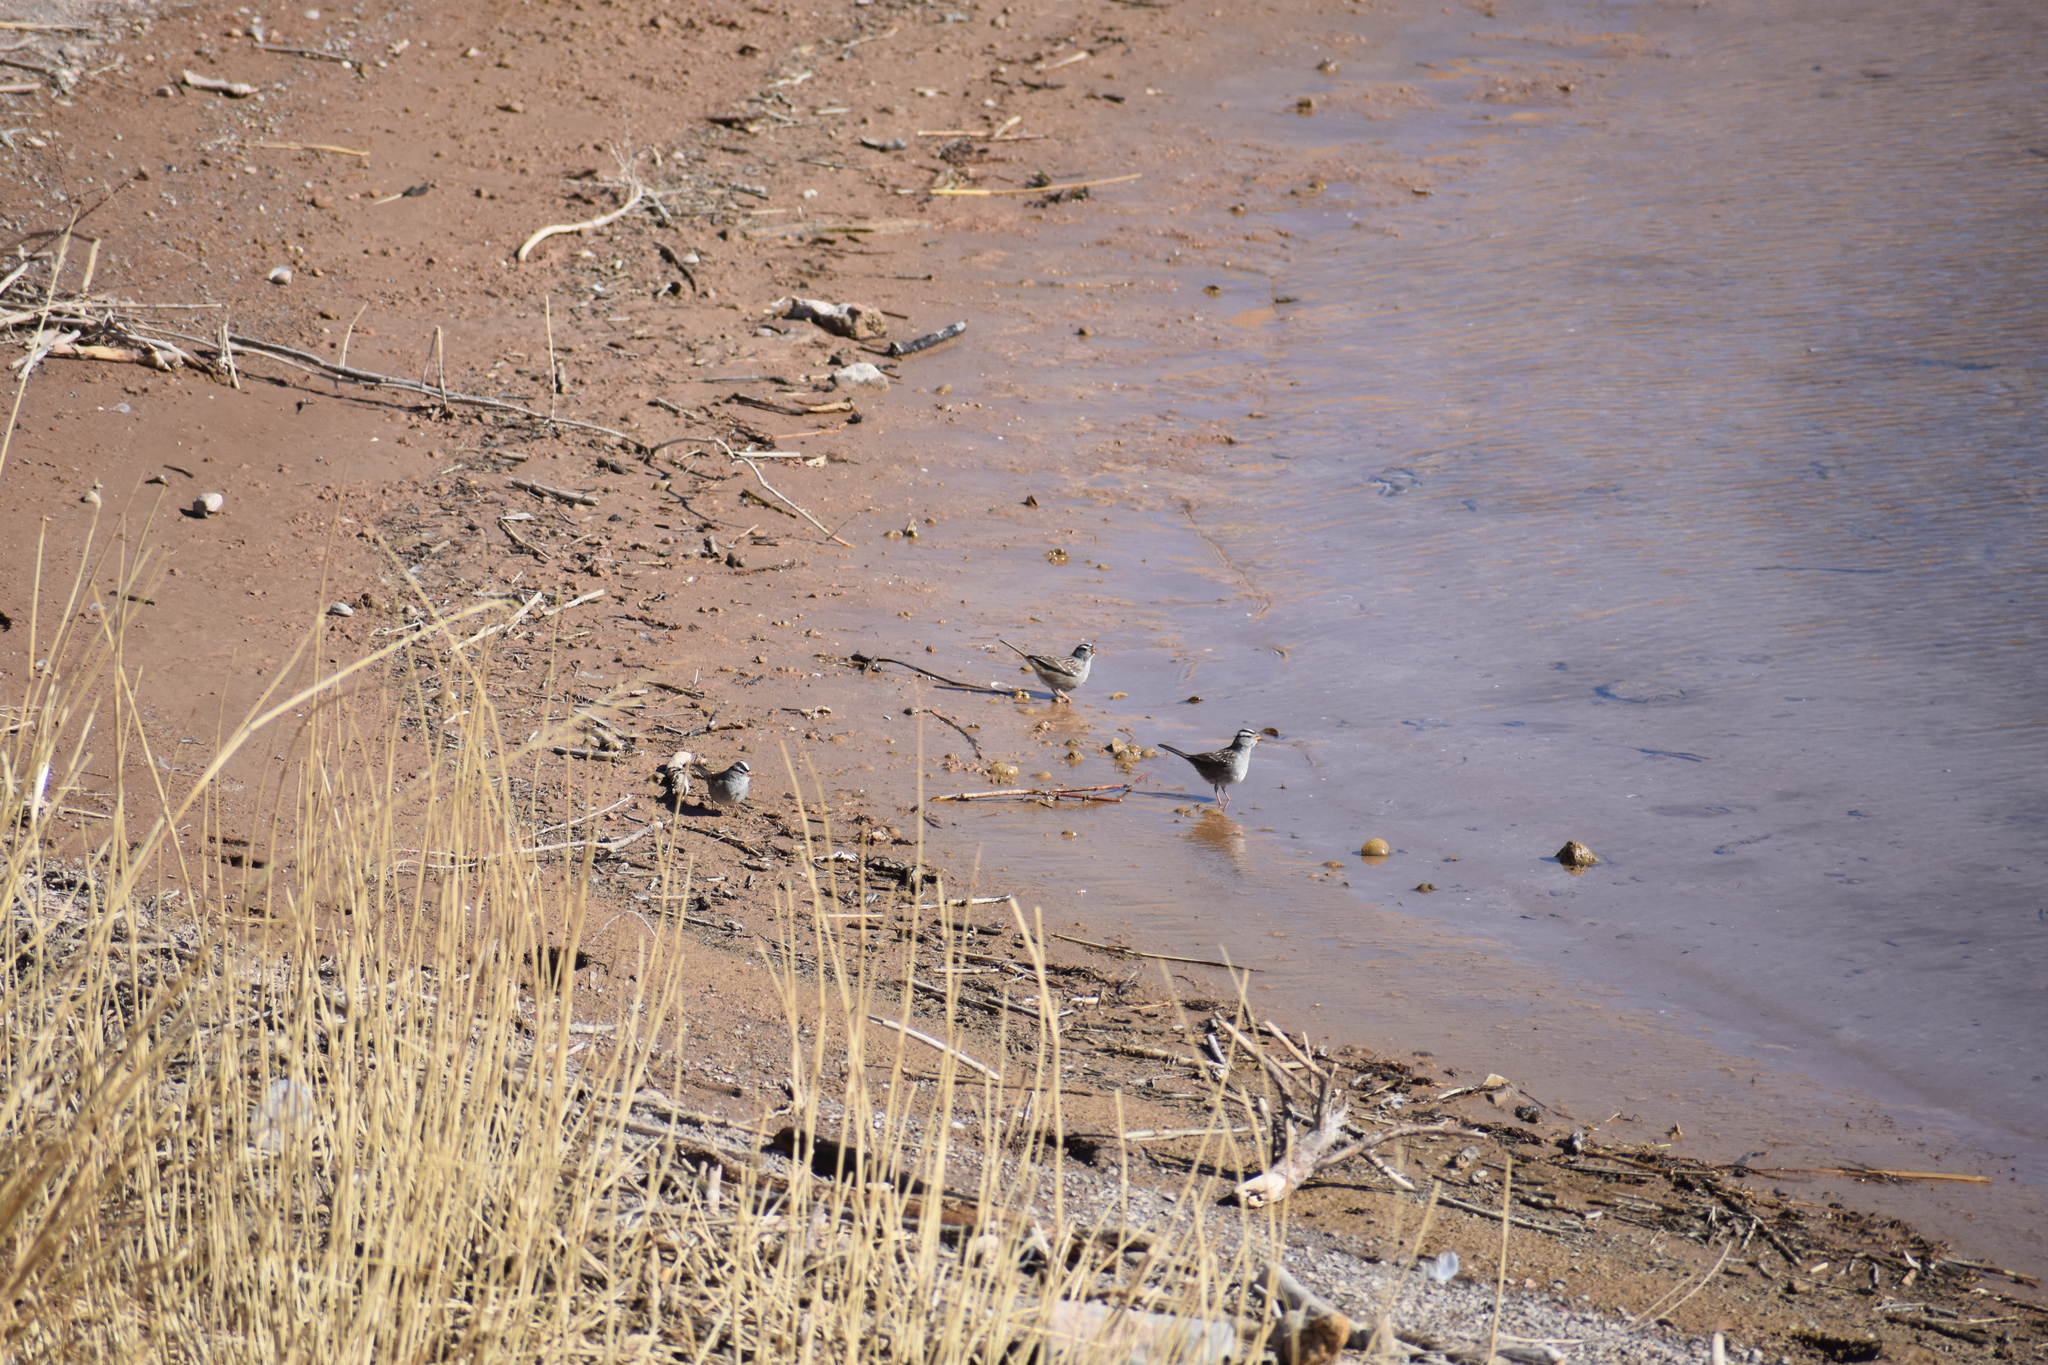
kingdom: Animalia
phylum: Chordata
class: Aves
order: Passeriformes
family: Passerellidae
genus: Zonotrichia
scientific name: Zonotrichia leucophrys
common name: White-crowned sparrow
